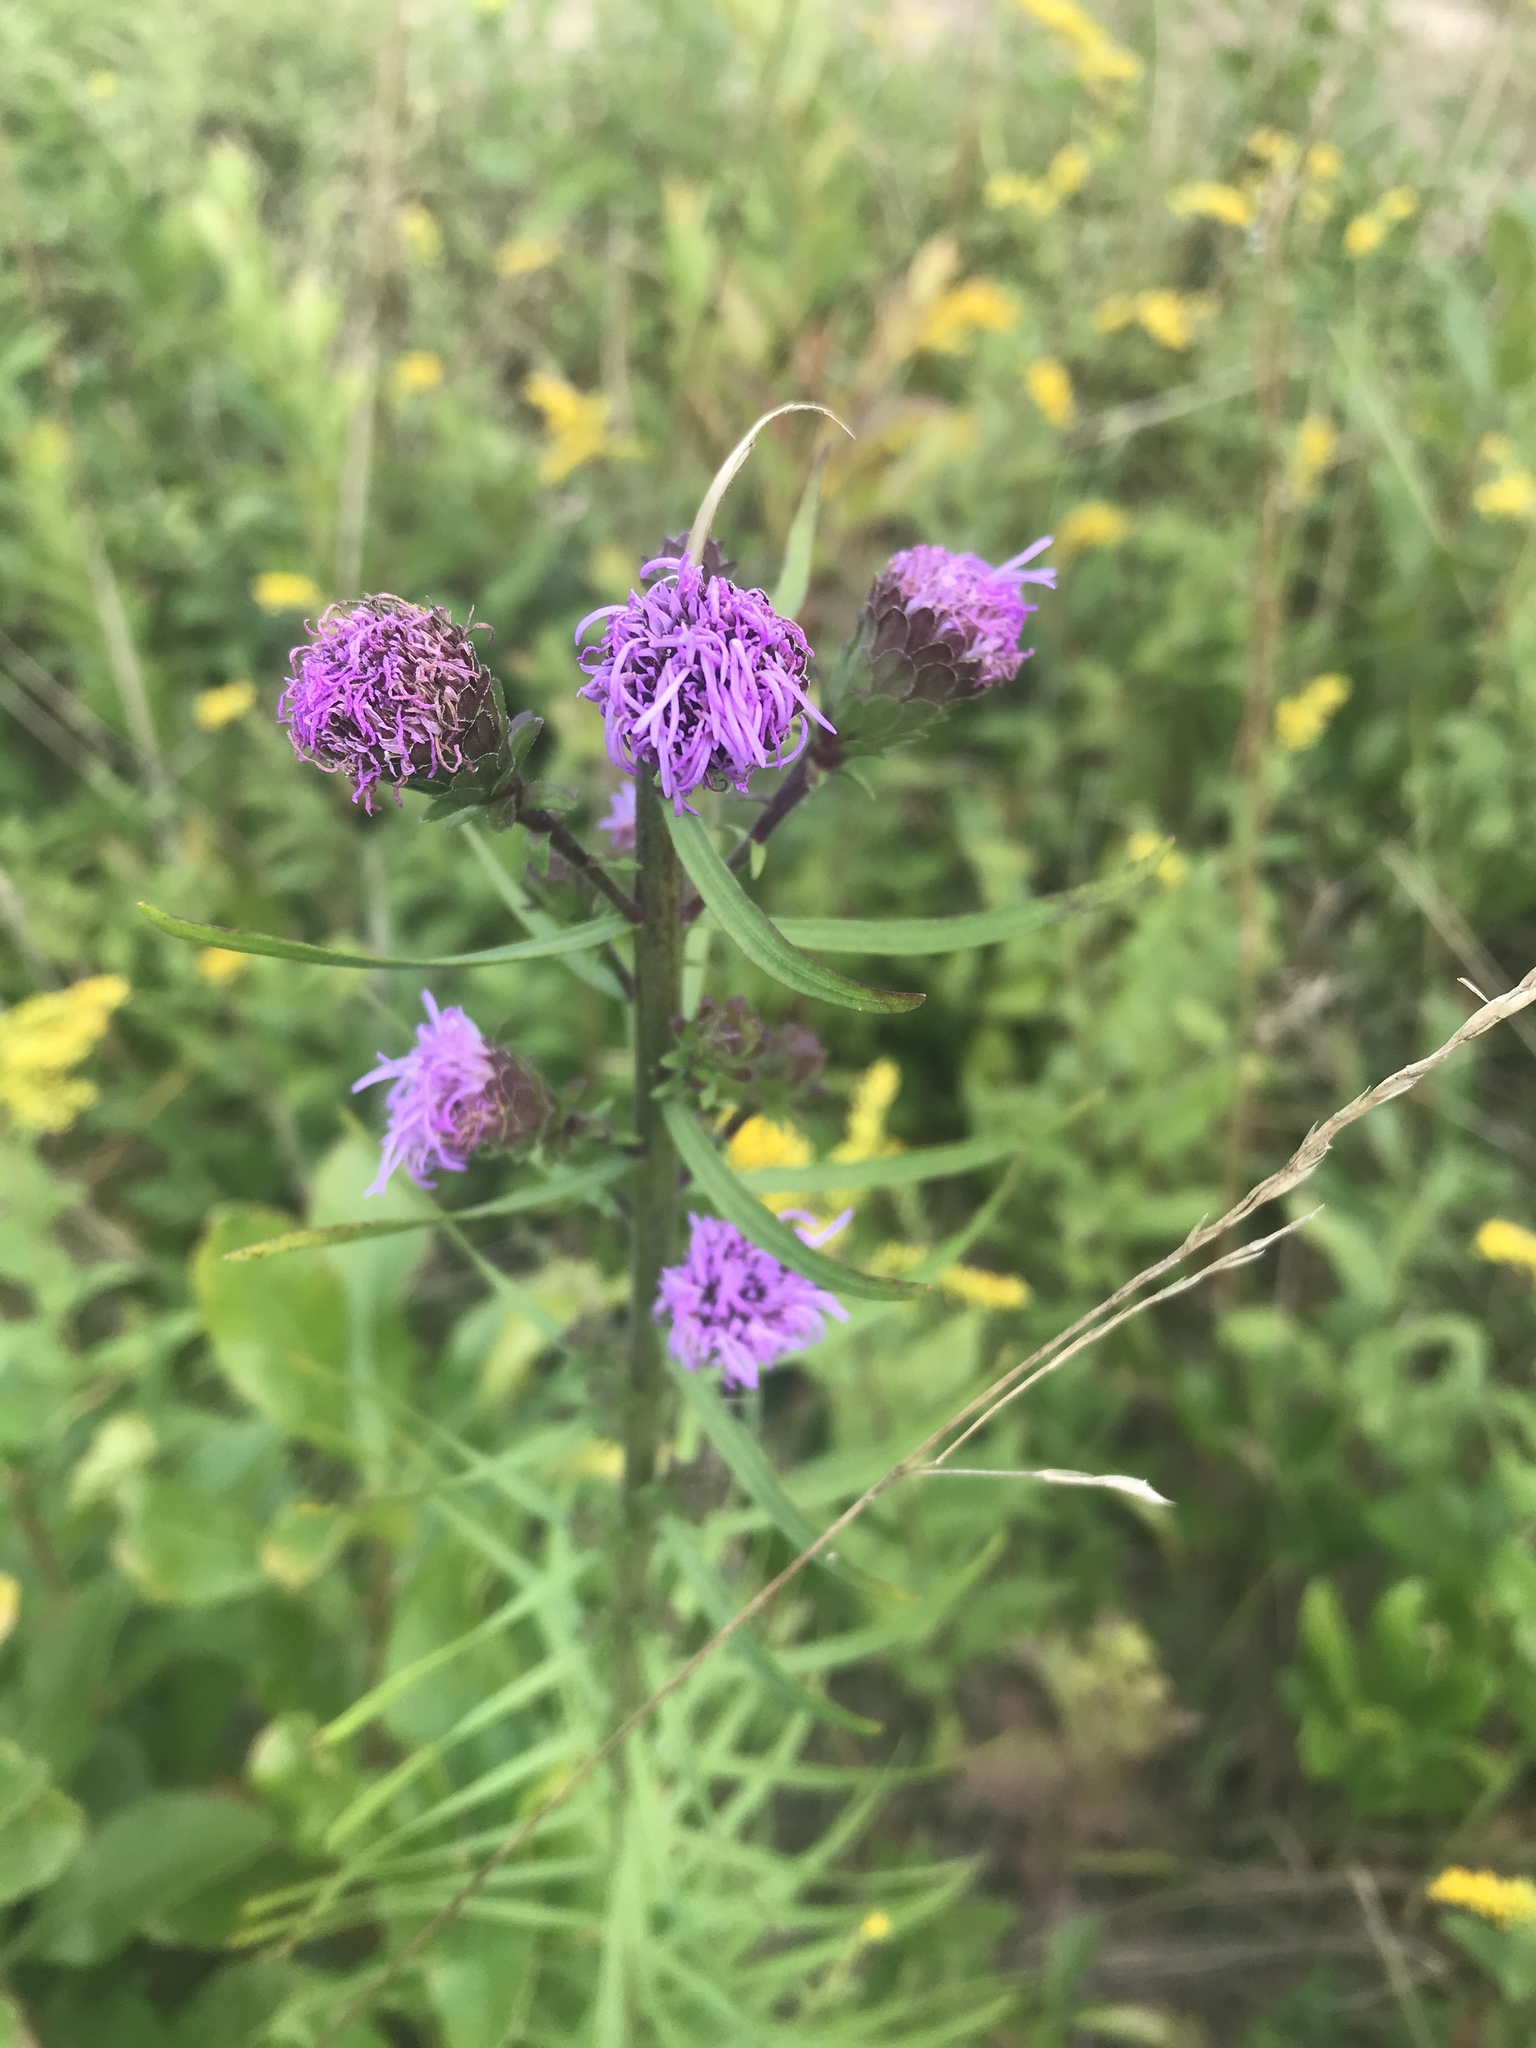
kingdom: Plantae
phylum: Tracheophyta
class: Magnoliopsida
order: Asterales
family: Asteraceae
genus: Liatris
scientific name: Liatris scariosa
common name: Northern gayfeather
